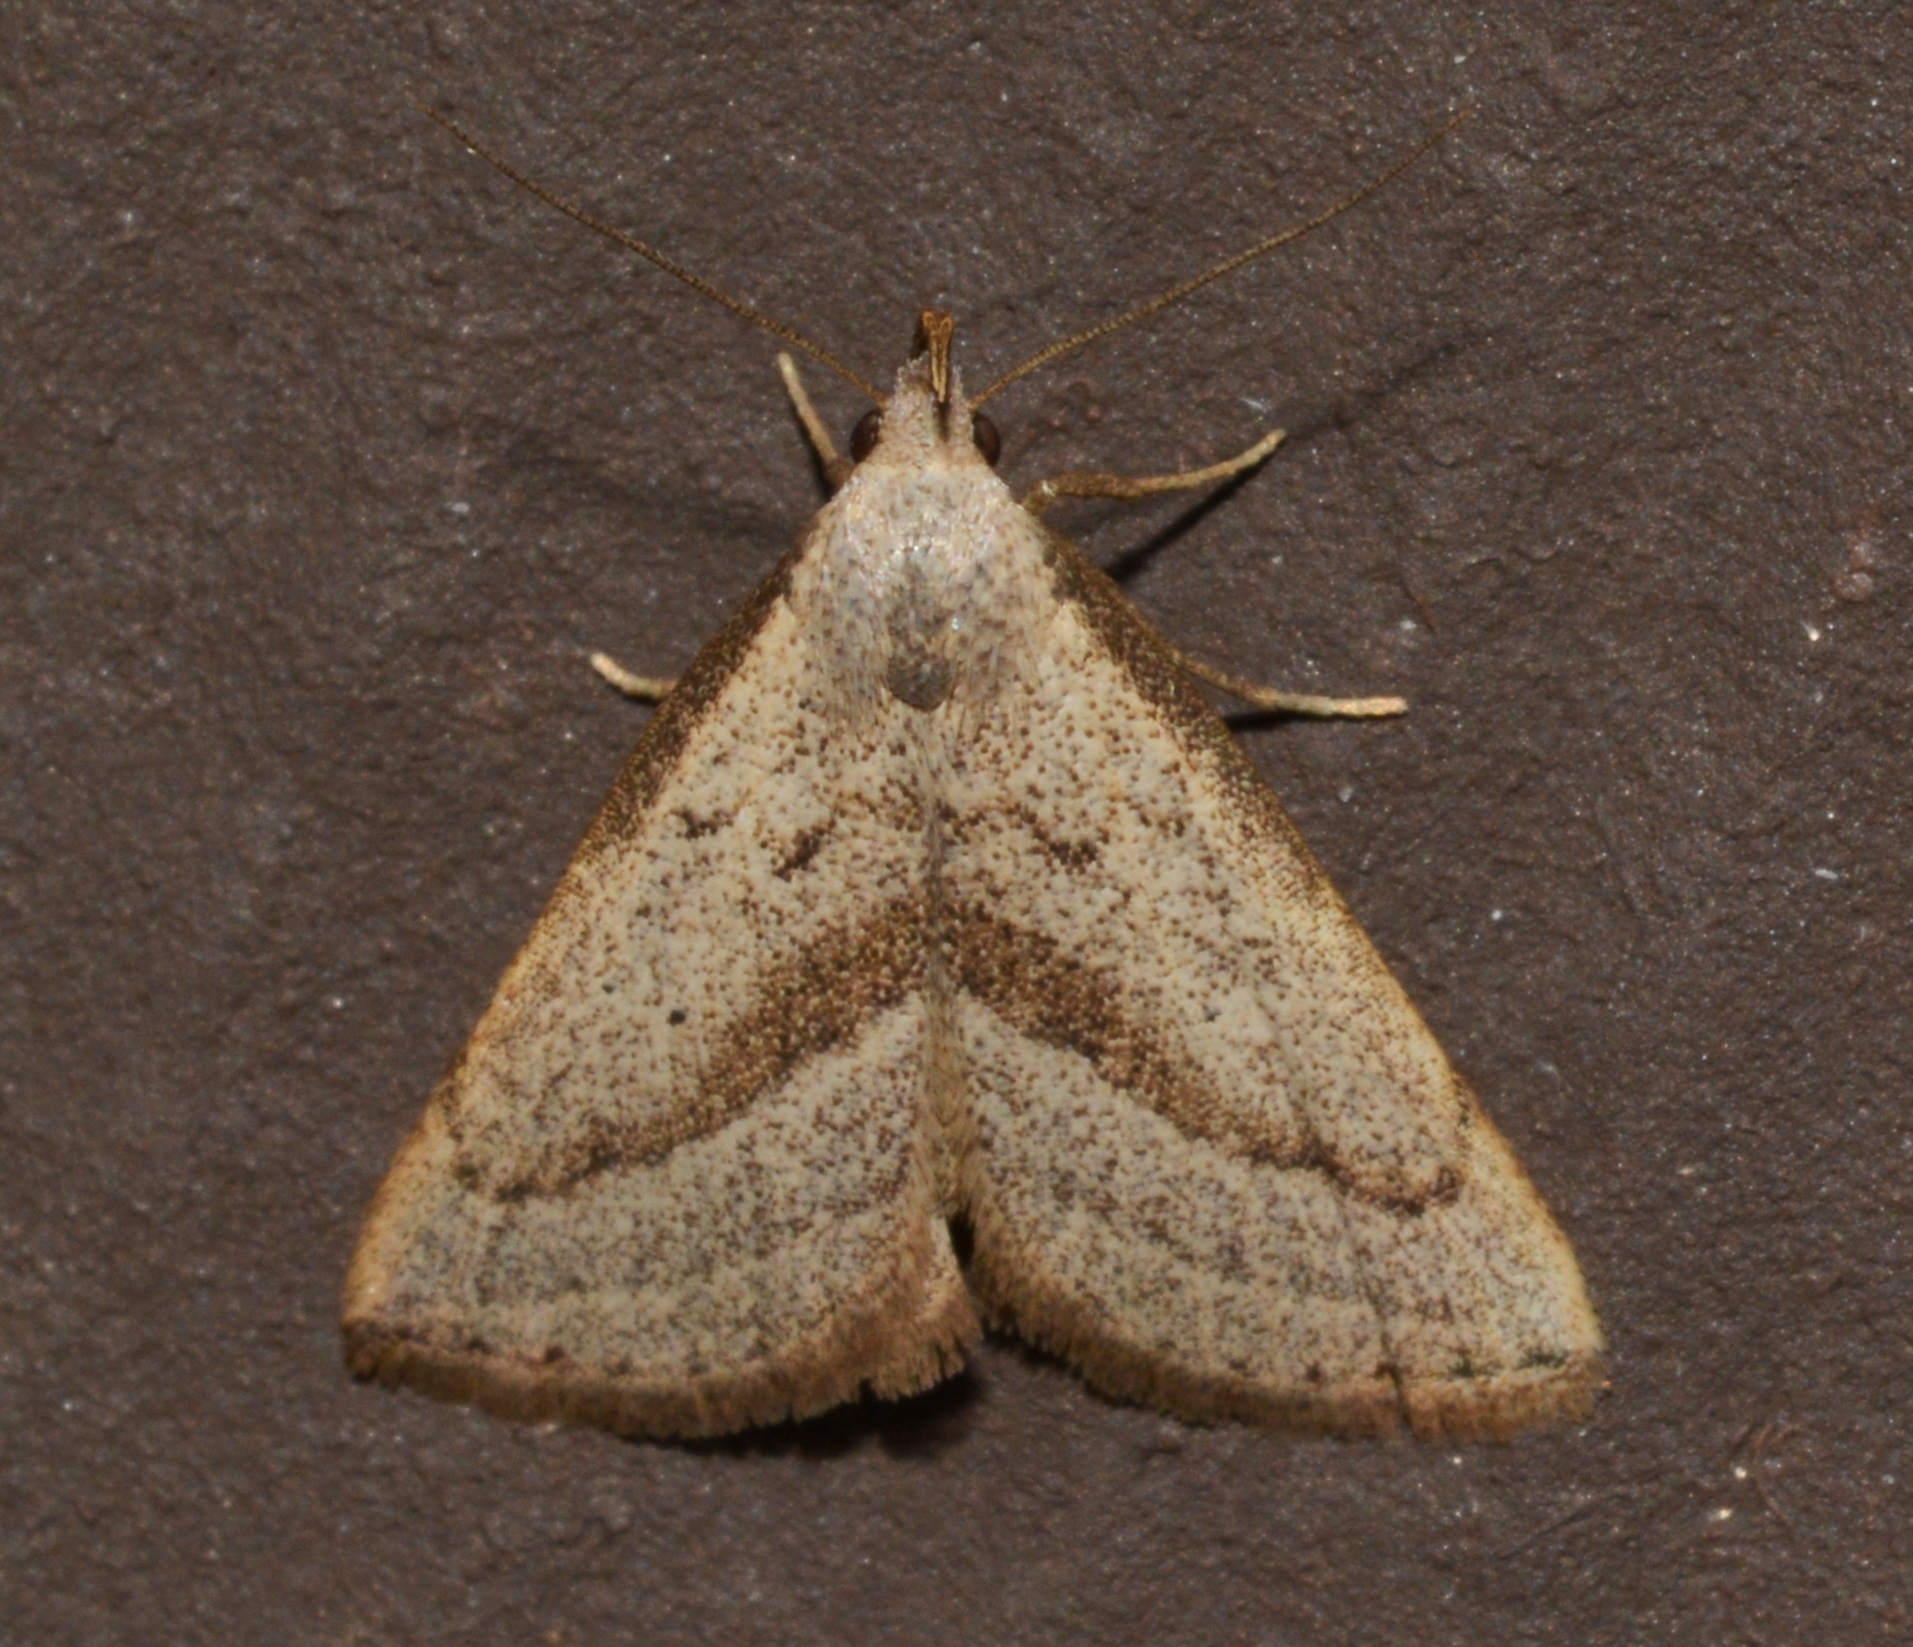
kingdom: Animalia
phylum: Arthropoda
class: Insecta
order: Lepidoptera
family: Erebidae
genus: Macrochilo
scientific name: Macrochilo hypocritalis
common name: Twin-dotted owlet
